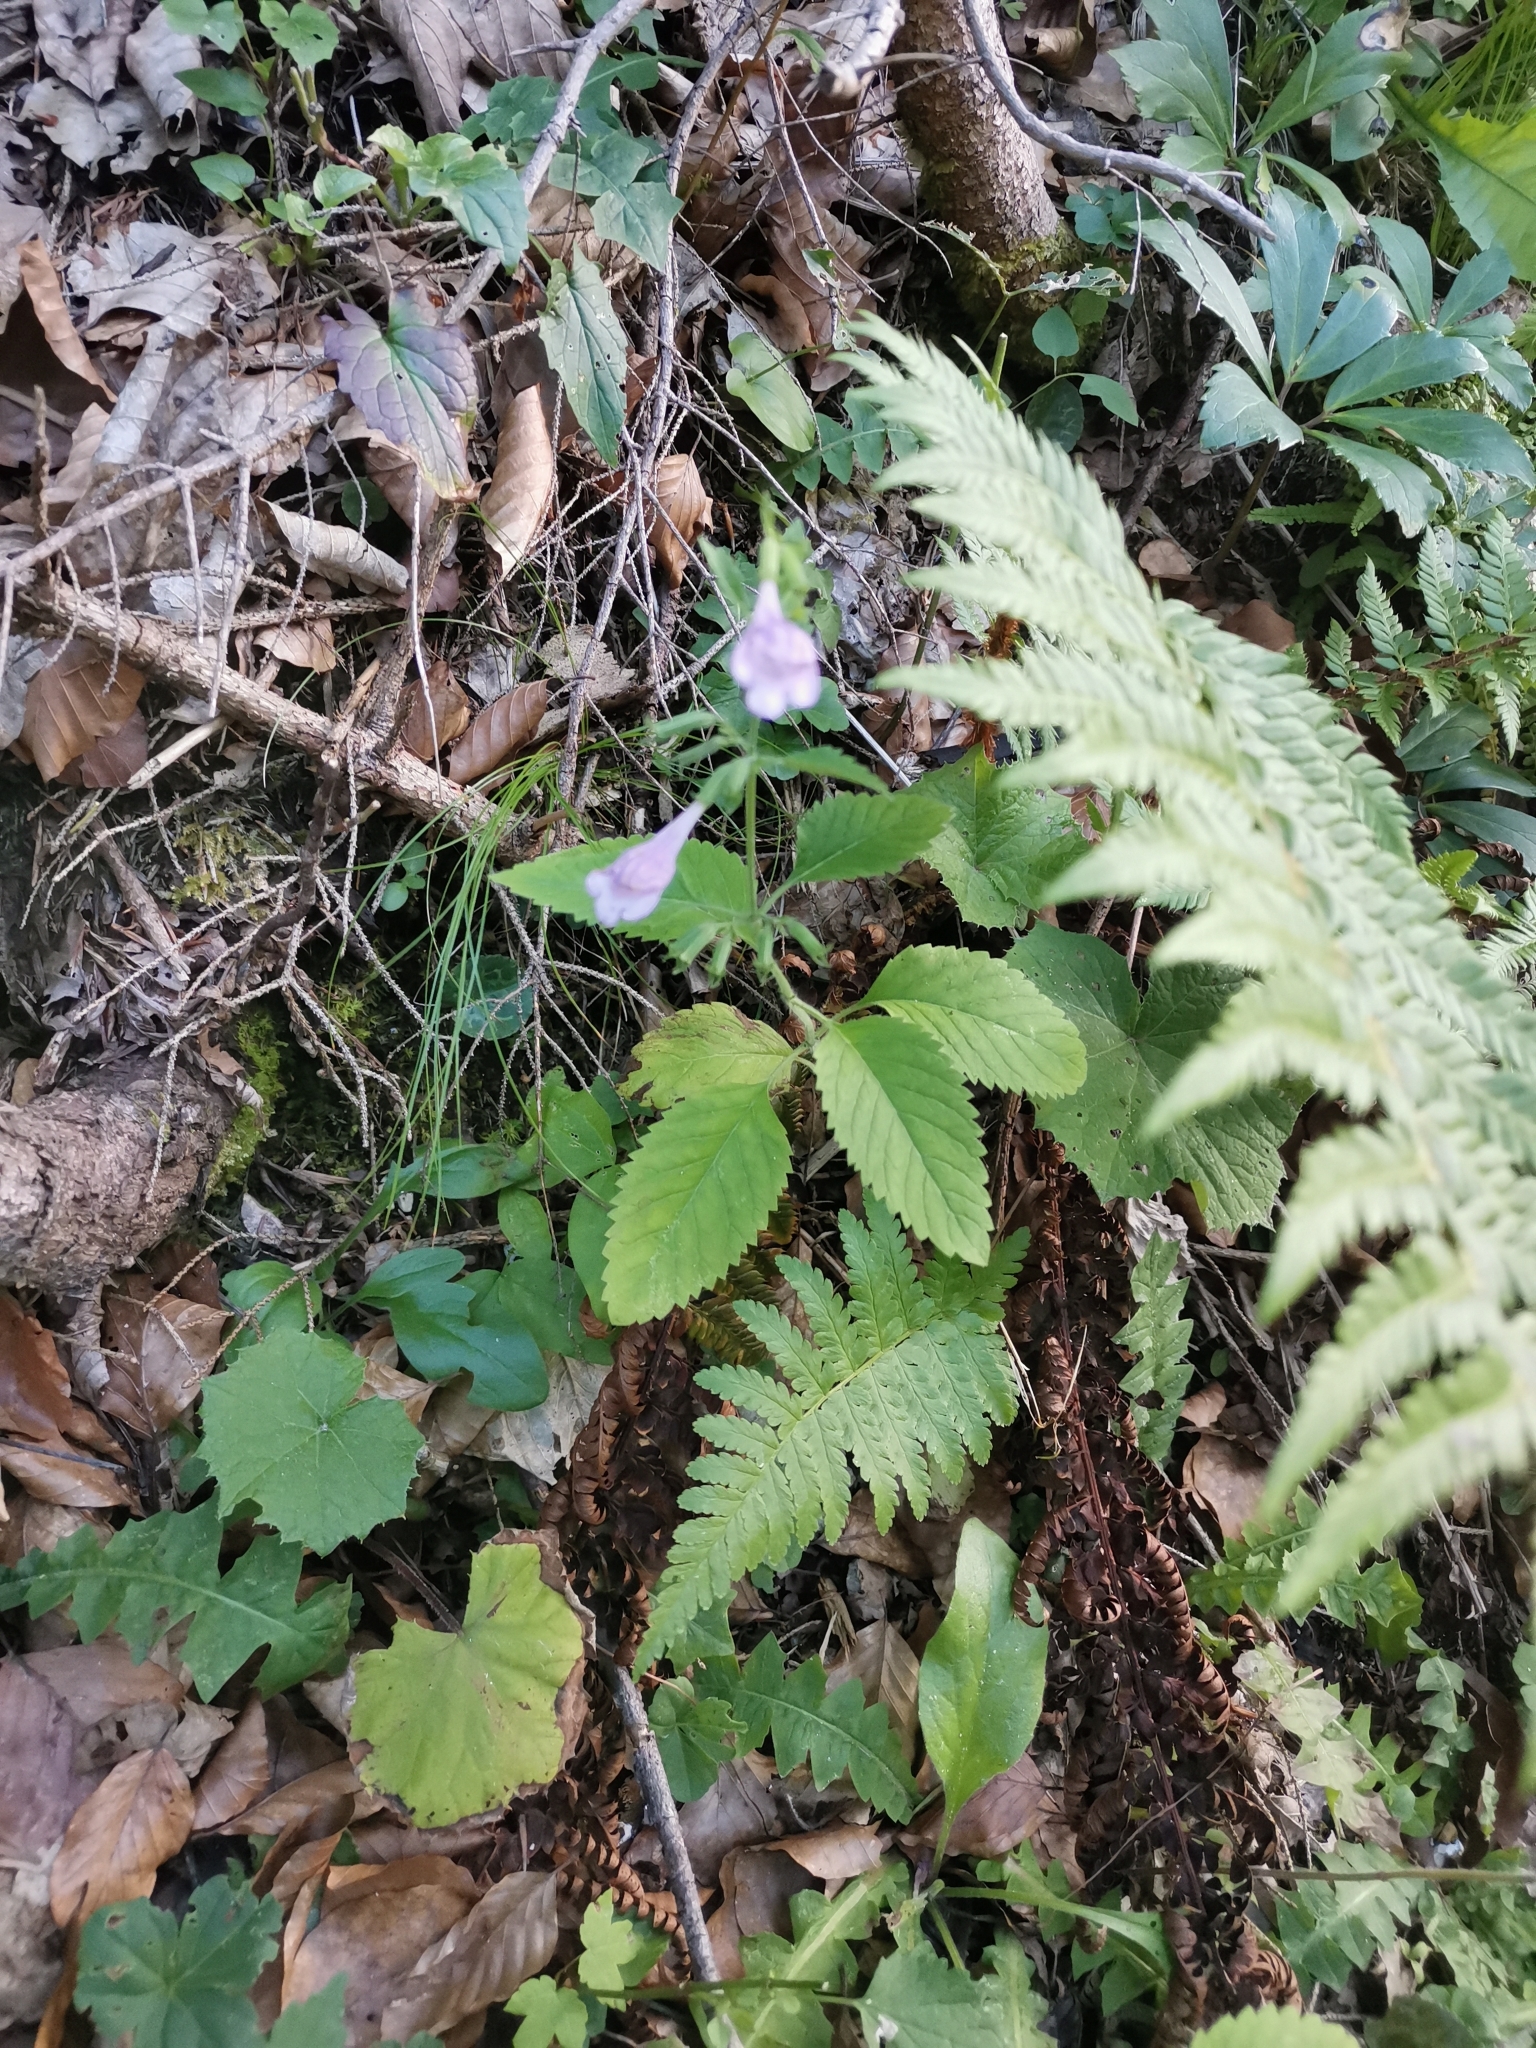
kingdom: Plantae
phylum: Tracheophyta
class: Magnoliopsida
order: Lamiales
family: Lamiaceae
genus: Clinopodium
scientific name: Clinopodium grandiflorum
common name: Greater calamint
